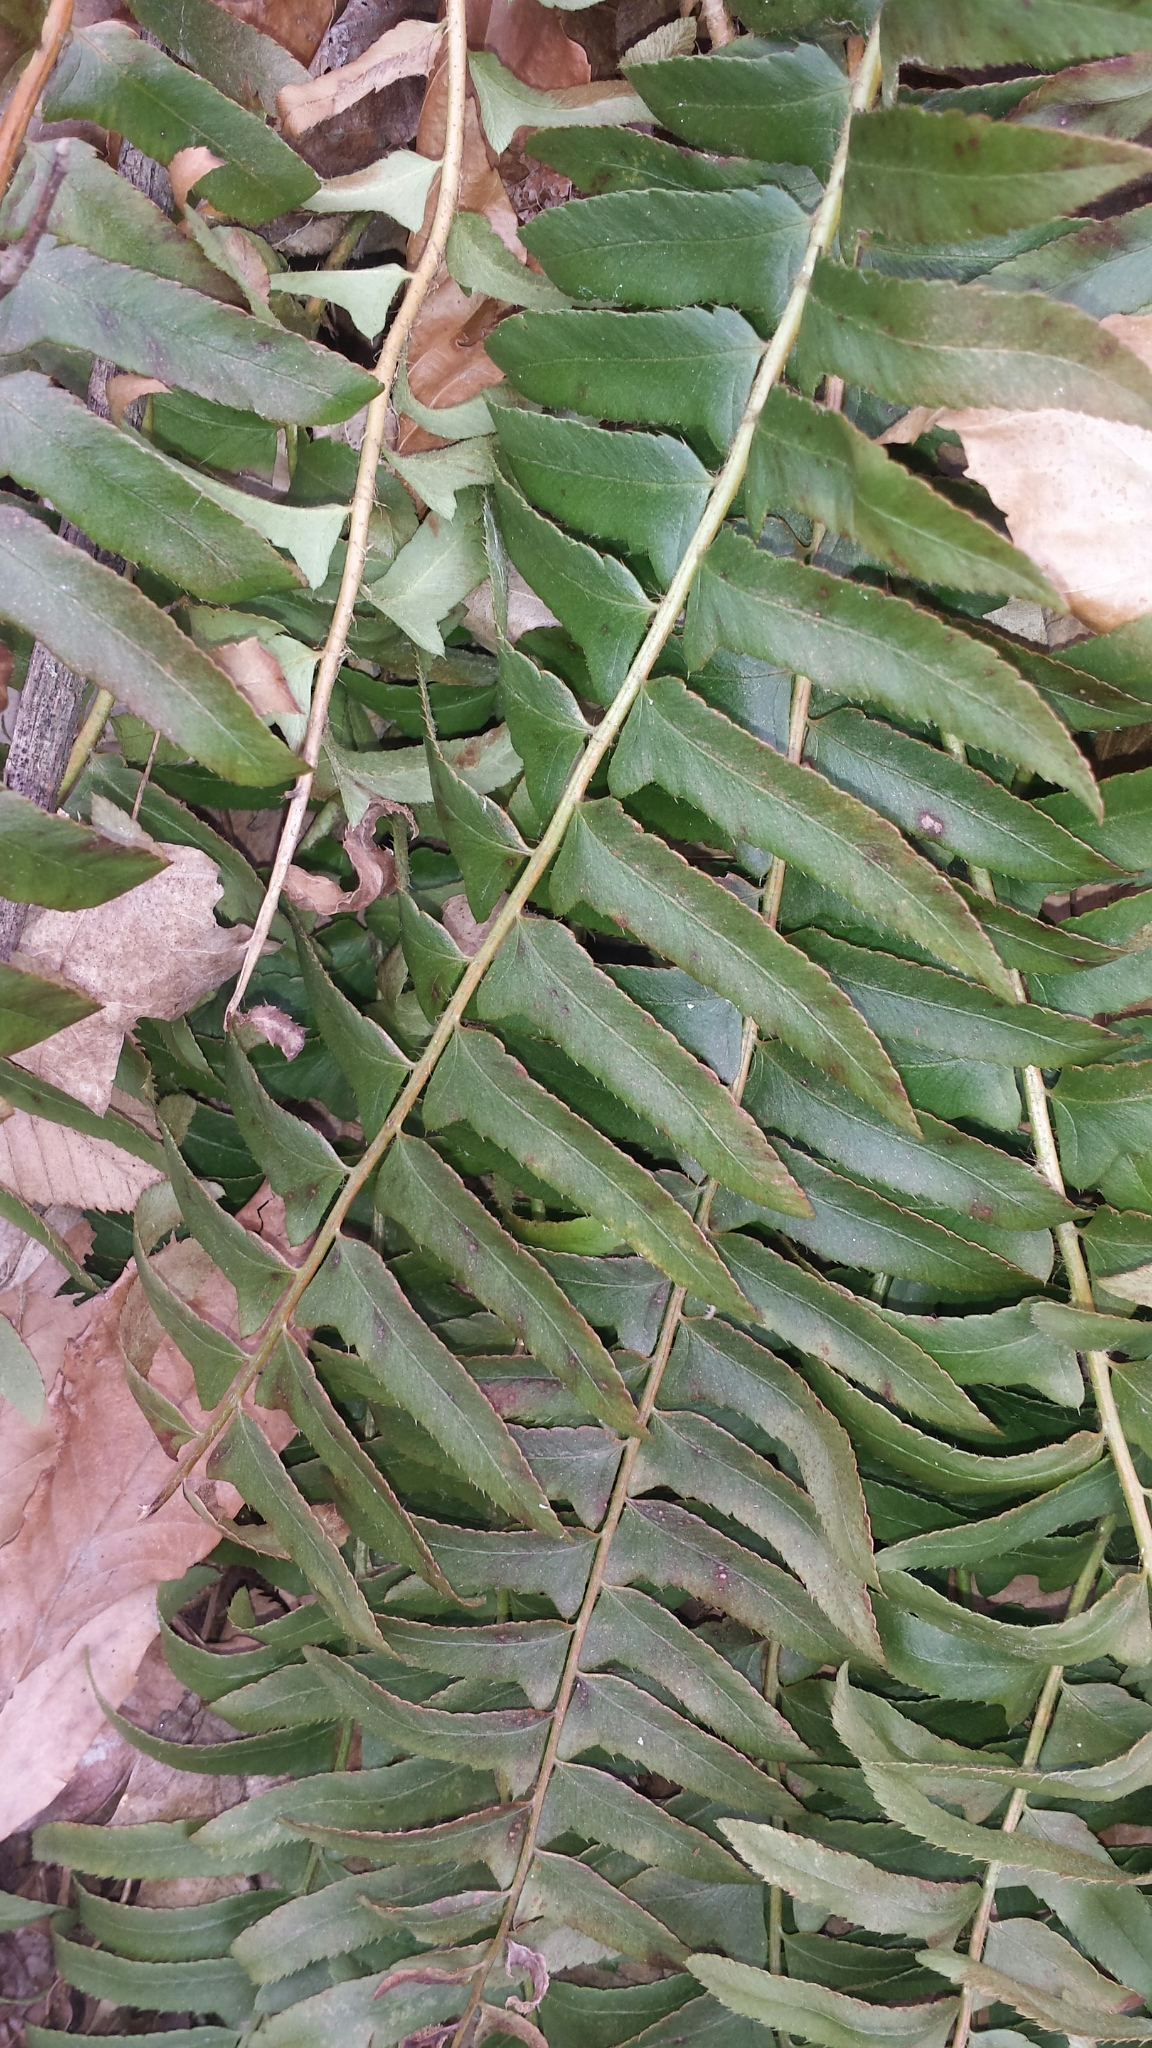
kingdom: Plantae
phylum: Tracheophyta
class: Polypodiopsida
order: Polypodiales
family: Dryopteridaceae
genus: Polystichum
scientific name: Polystichum acrostichoides
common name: Christmas fern
